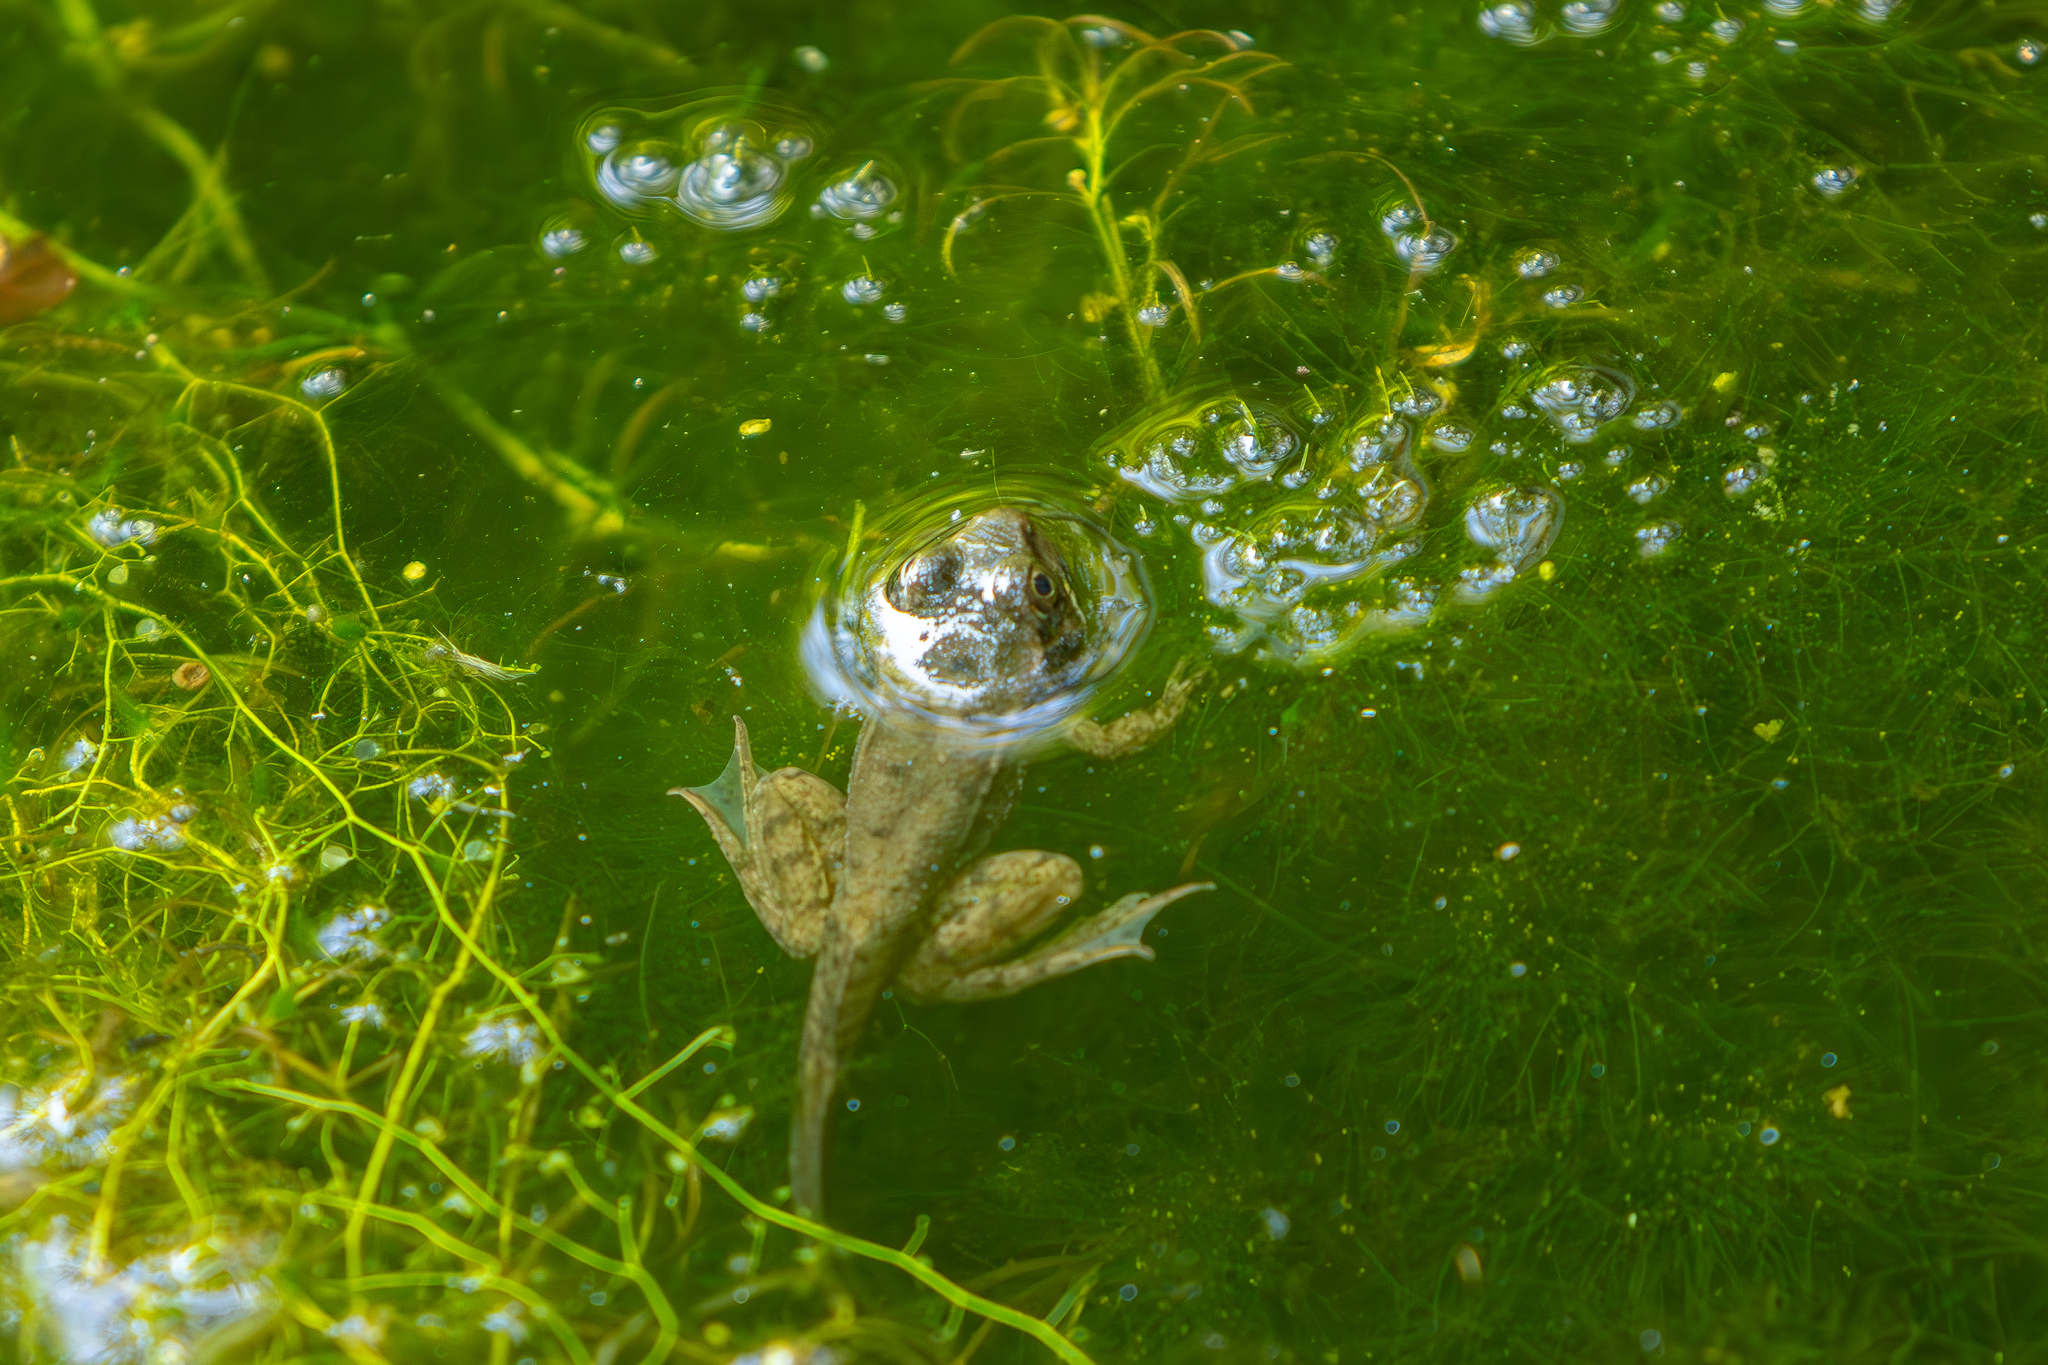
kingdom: Animalia
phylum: Chordata
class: Amphibia
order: Anura
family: Ranidae
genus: Lithobates
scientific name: Lithobates clamitans
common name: Green frog
